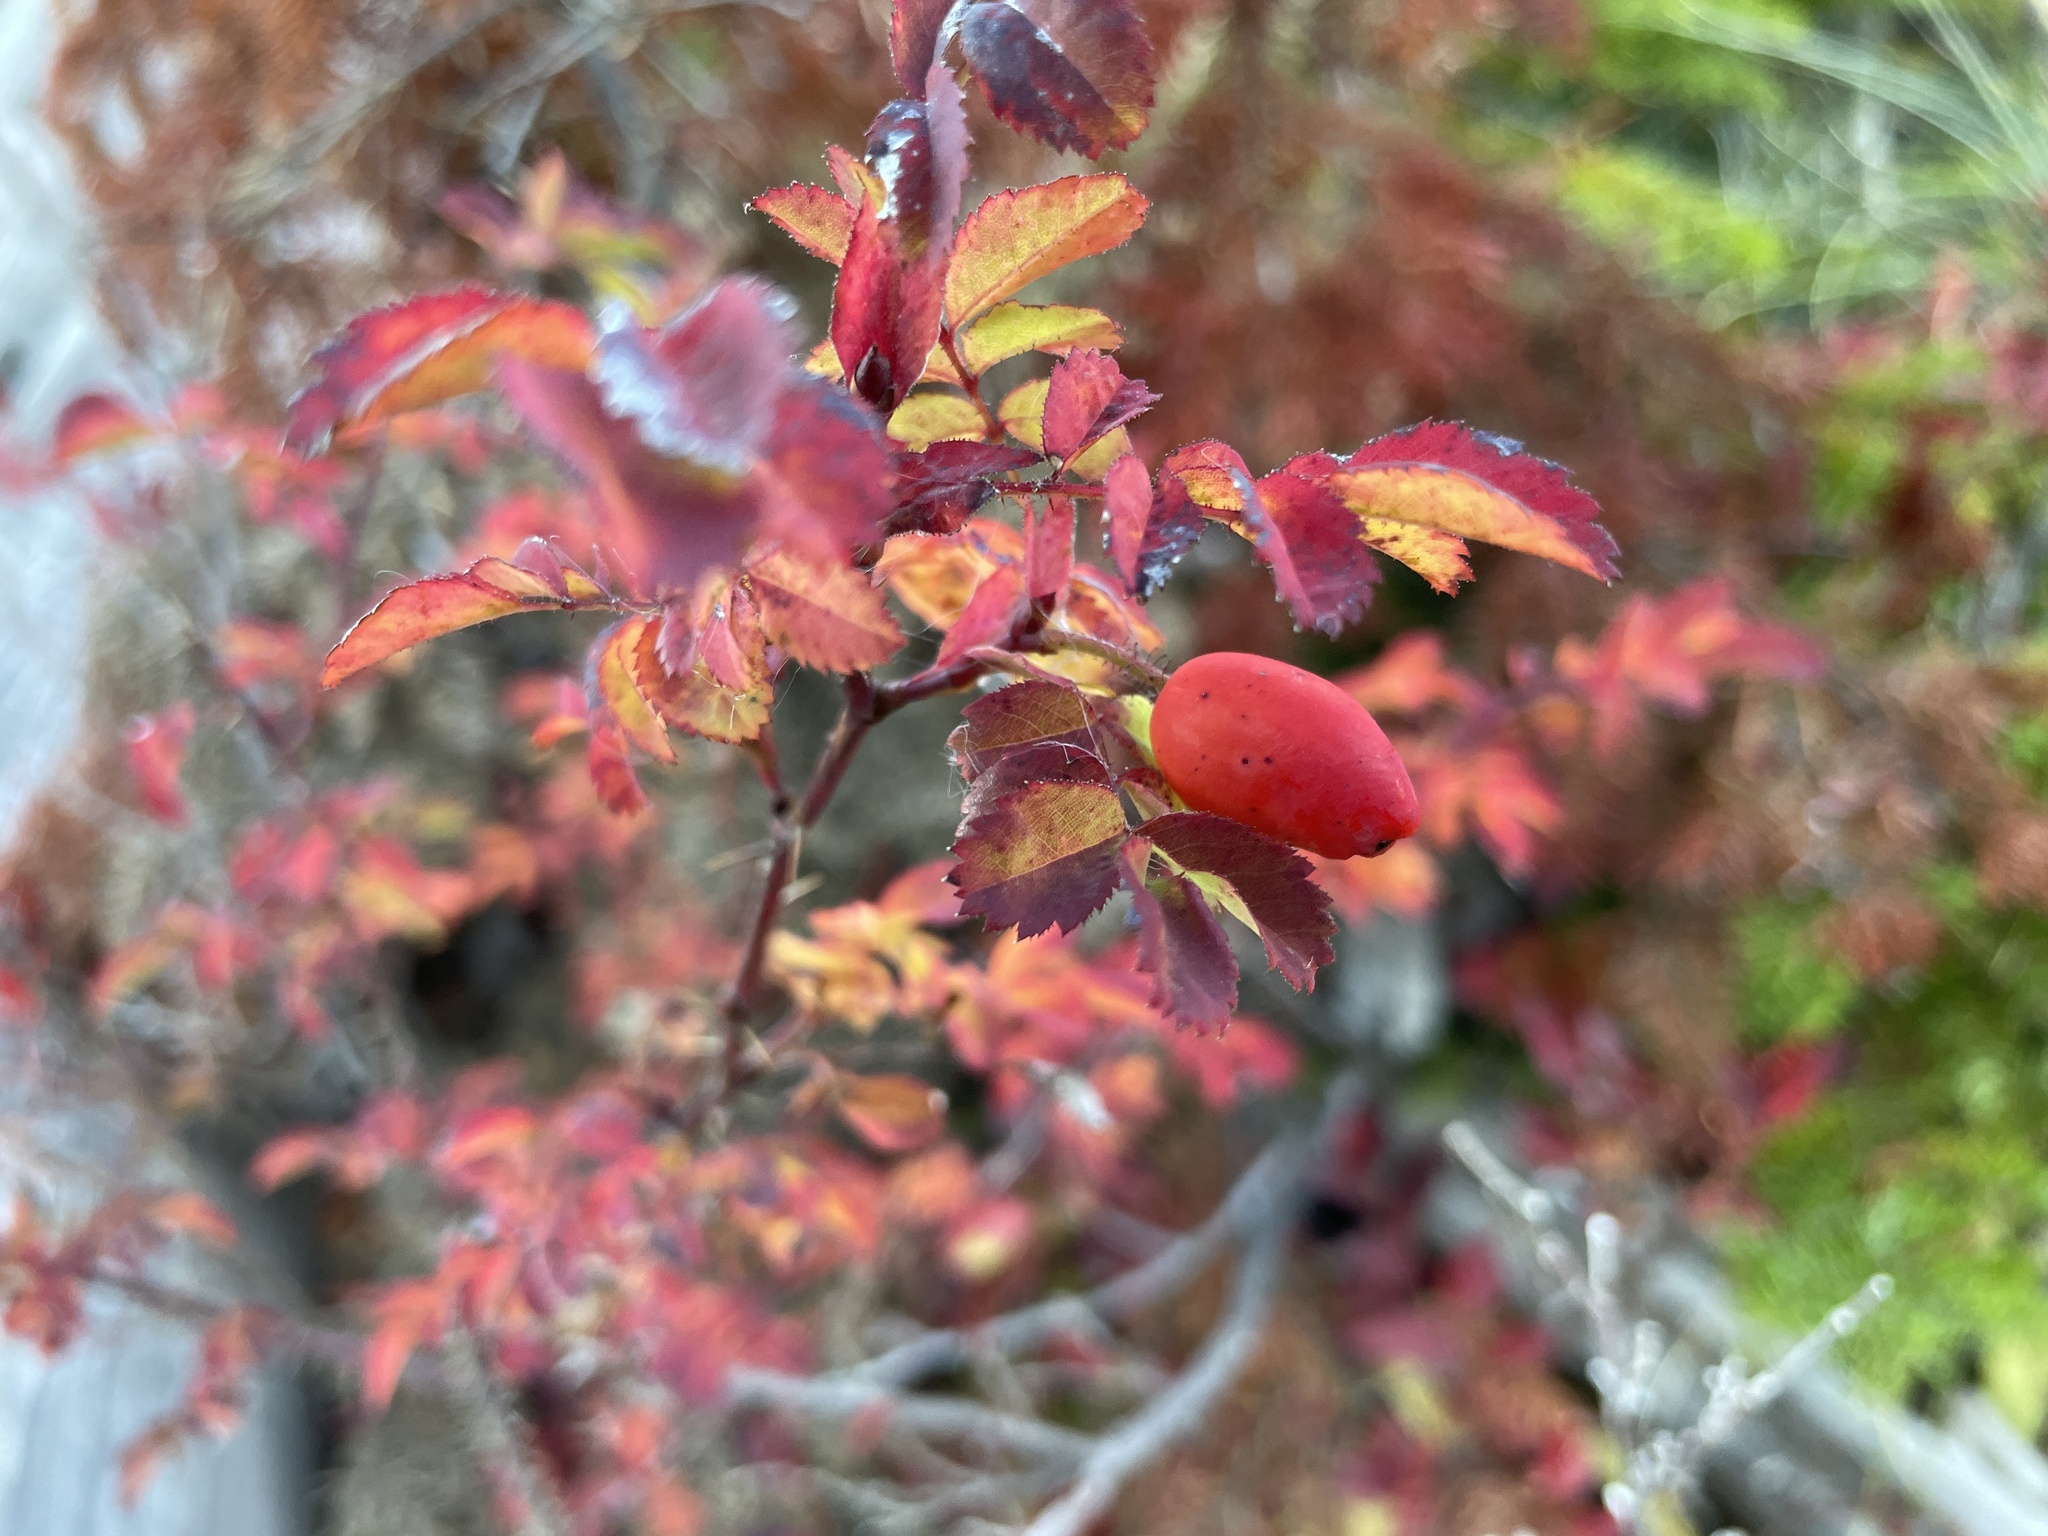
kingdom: Plantae
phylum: Tracheophyta
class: Magnoliopsida
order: Rosales
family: Rosaceae
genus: Rosa
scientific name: Rosa gymnocarpa
